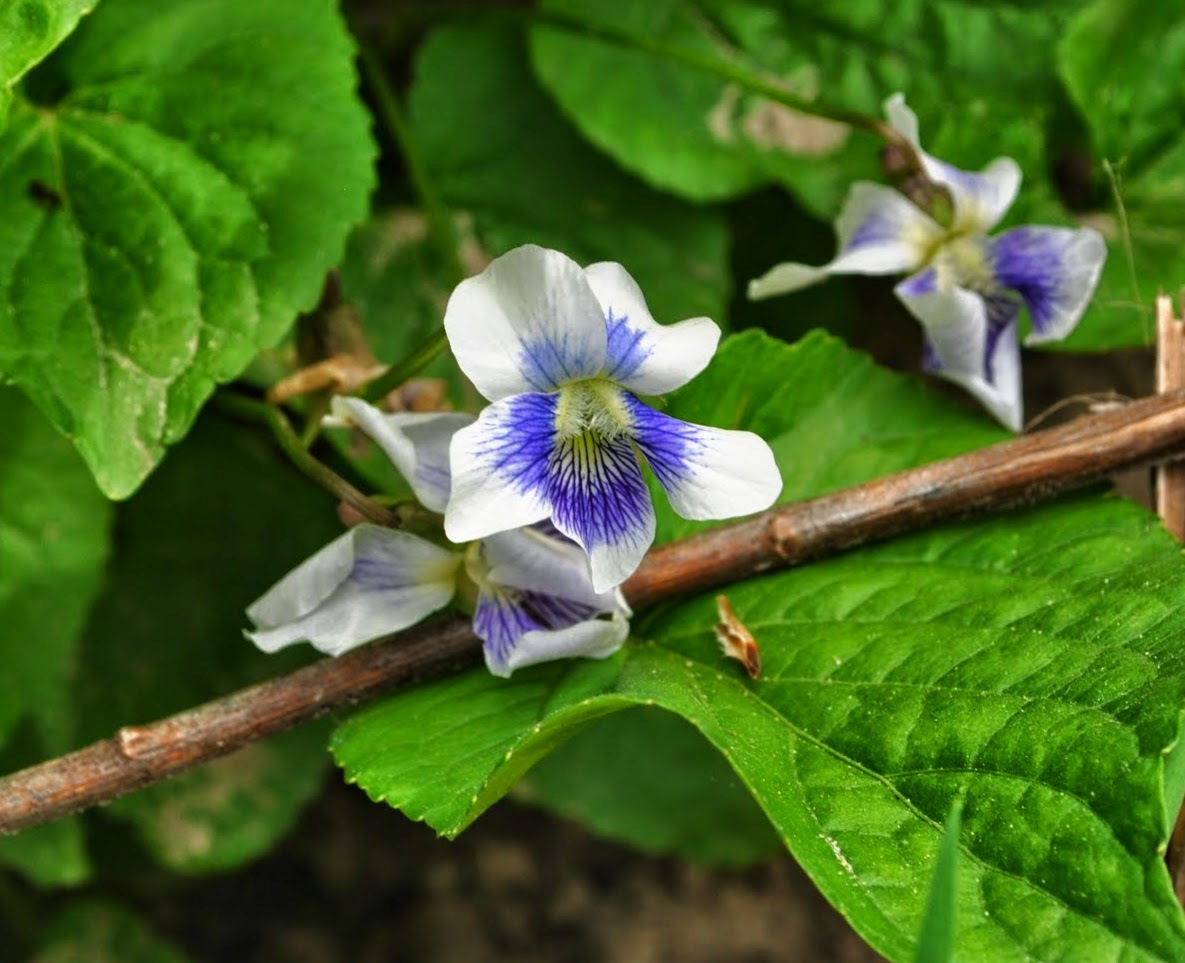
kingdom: Plantae
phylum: Tracheophyta
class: Magnoliopsida
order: Malpighiales
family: Violaceae
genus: Viola
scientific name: Viola sororia
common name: Dooryard violet
